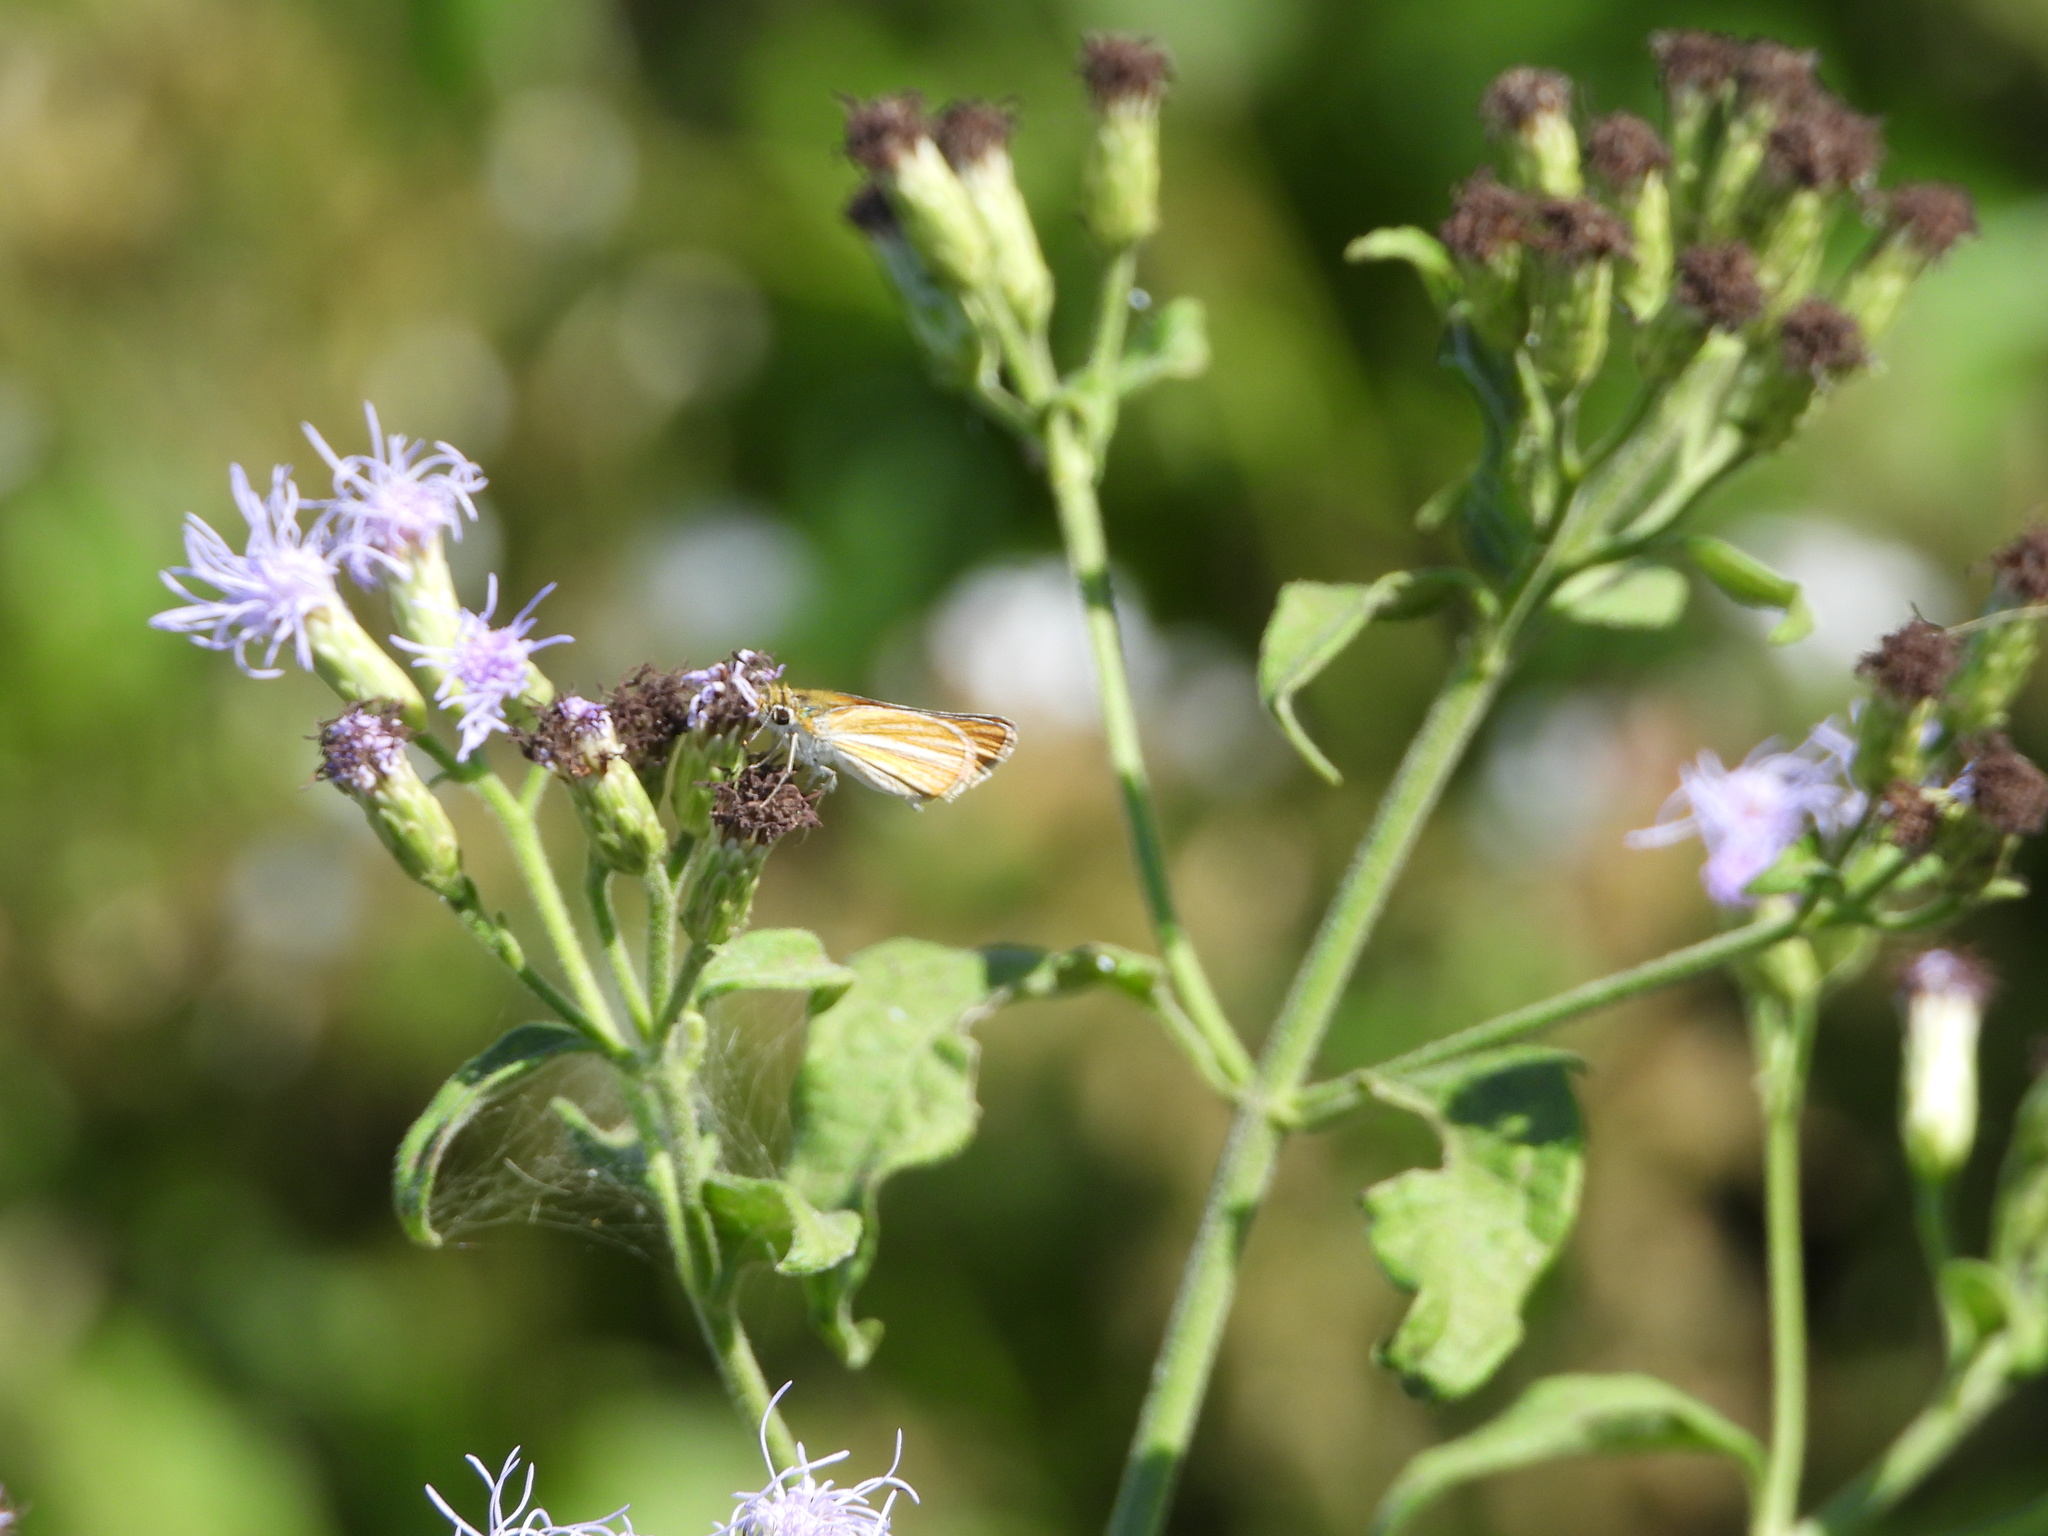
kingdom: Animalia
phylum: Arthropoda
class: Insecta
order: Lepidoptera
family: Hesperiidae
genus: Copaeodes
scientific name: Copaeodes minima
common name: Southern skipperling
